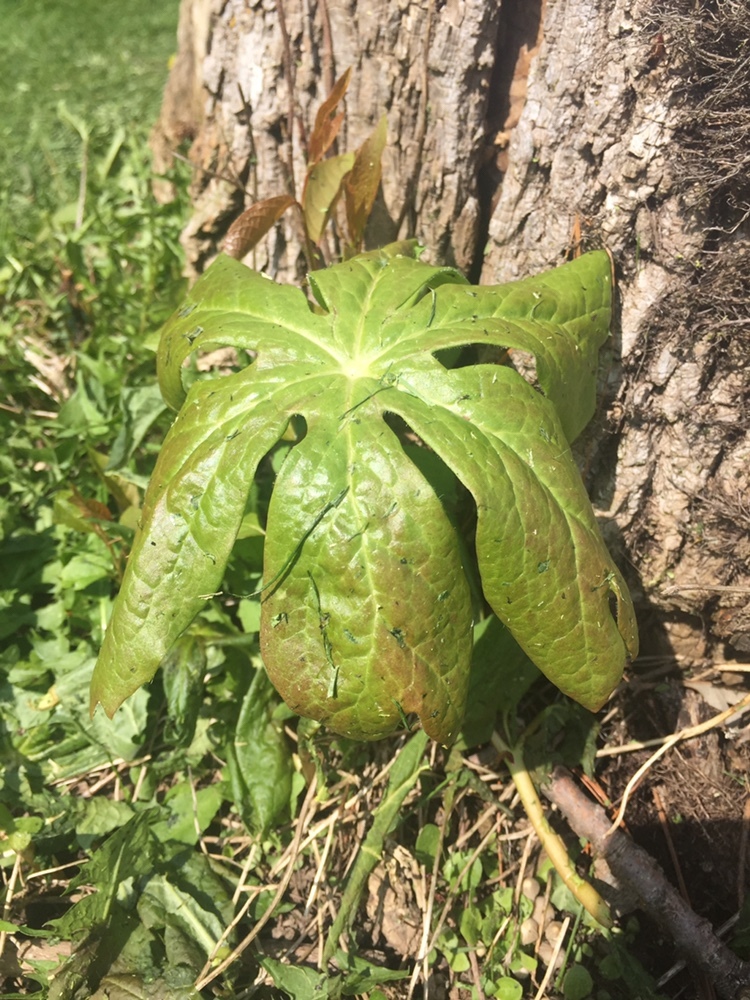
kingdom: Plantae
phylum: Tracheophyta
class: Magnoliopsida
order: Ranunculales
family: Berberidaceae
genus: Podophyllum
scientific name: Podophyllum peltatum
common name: Wild mandrake
